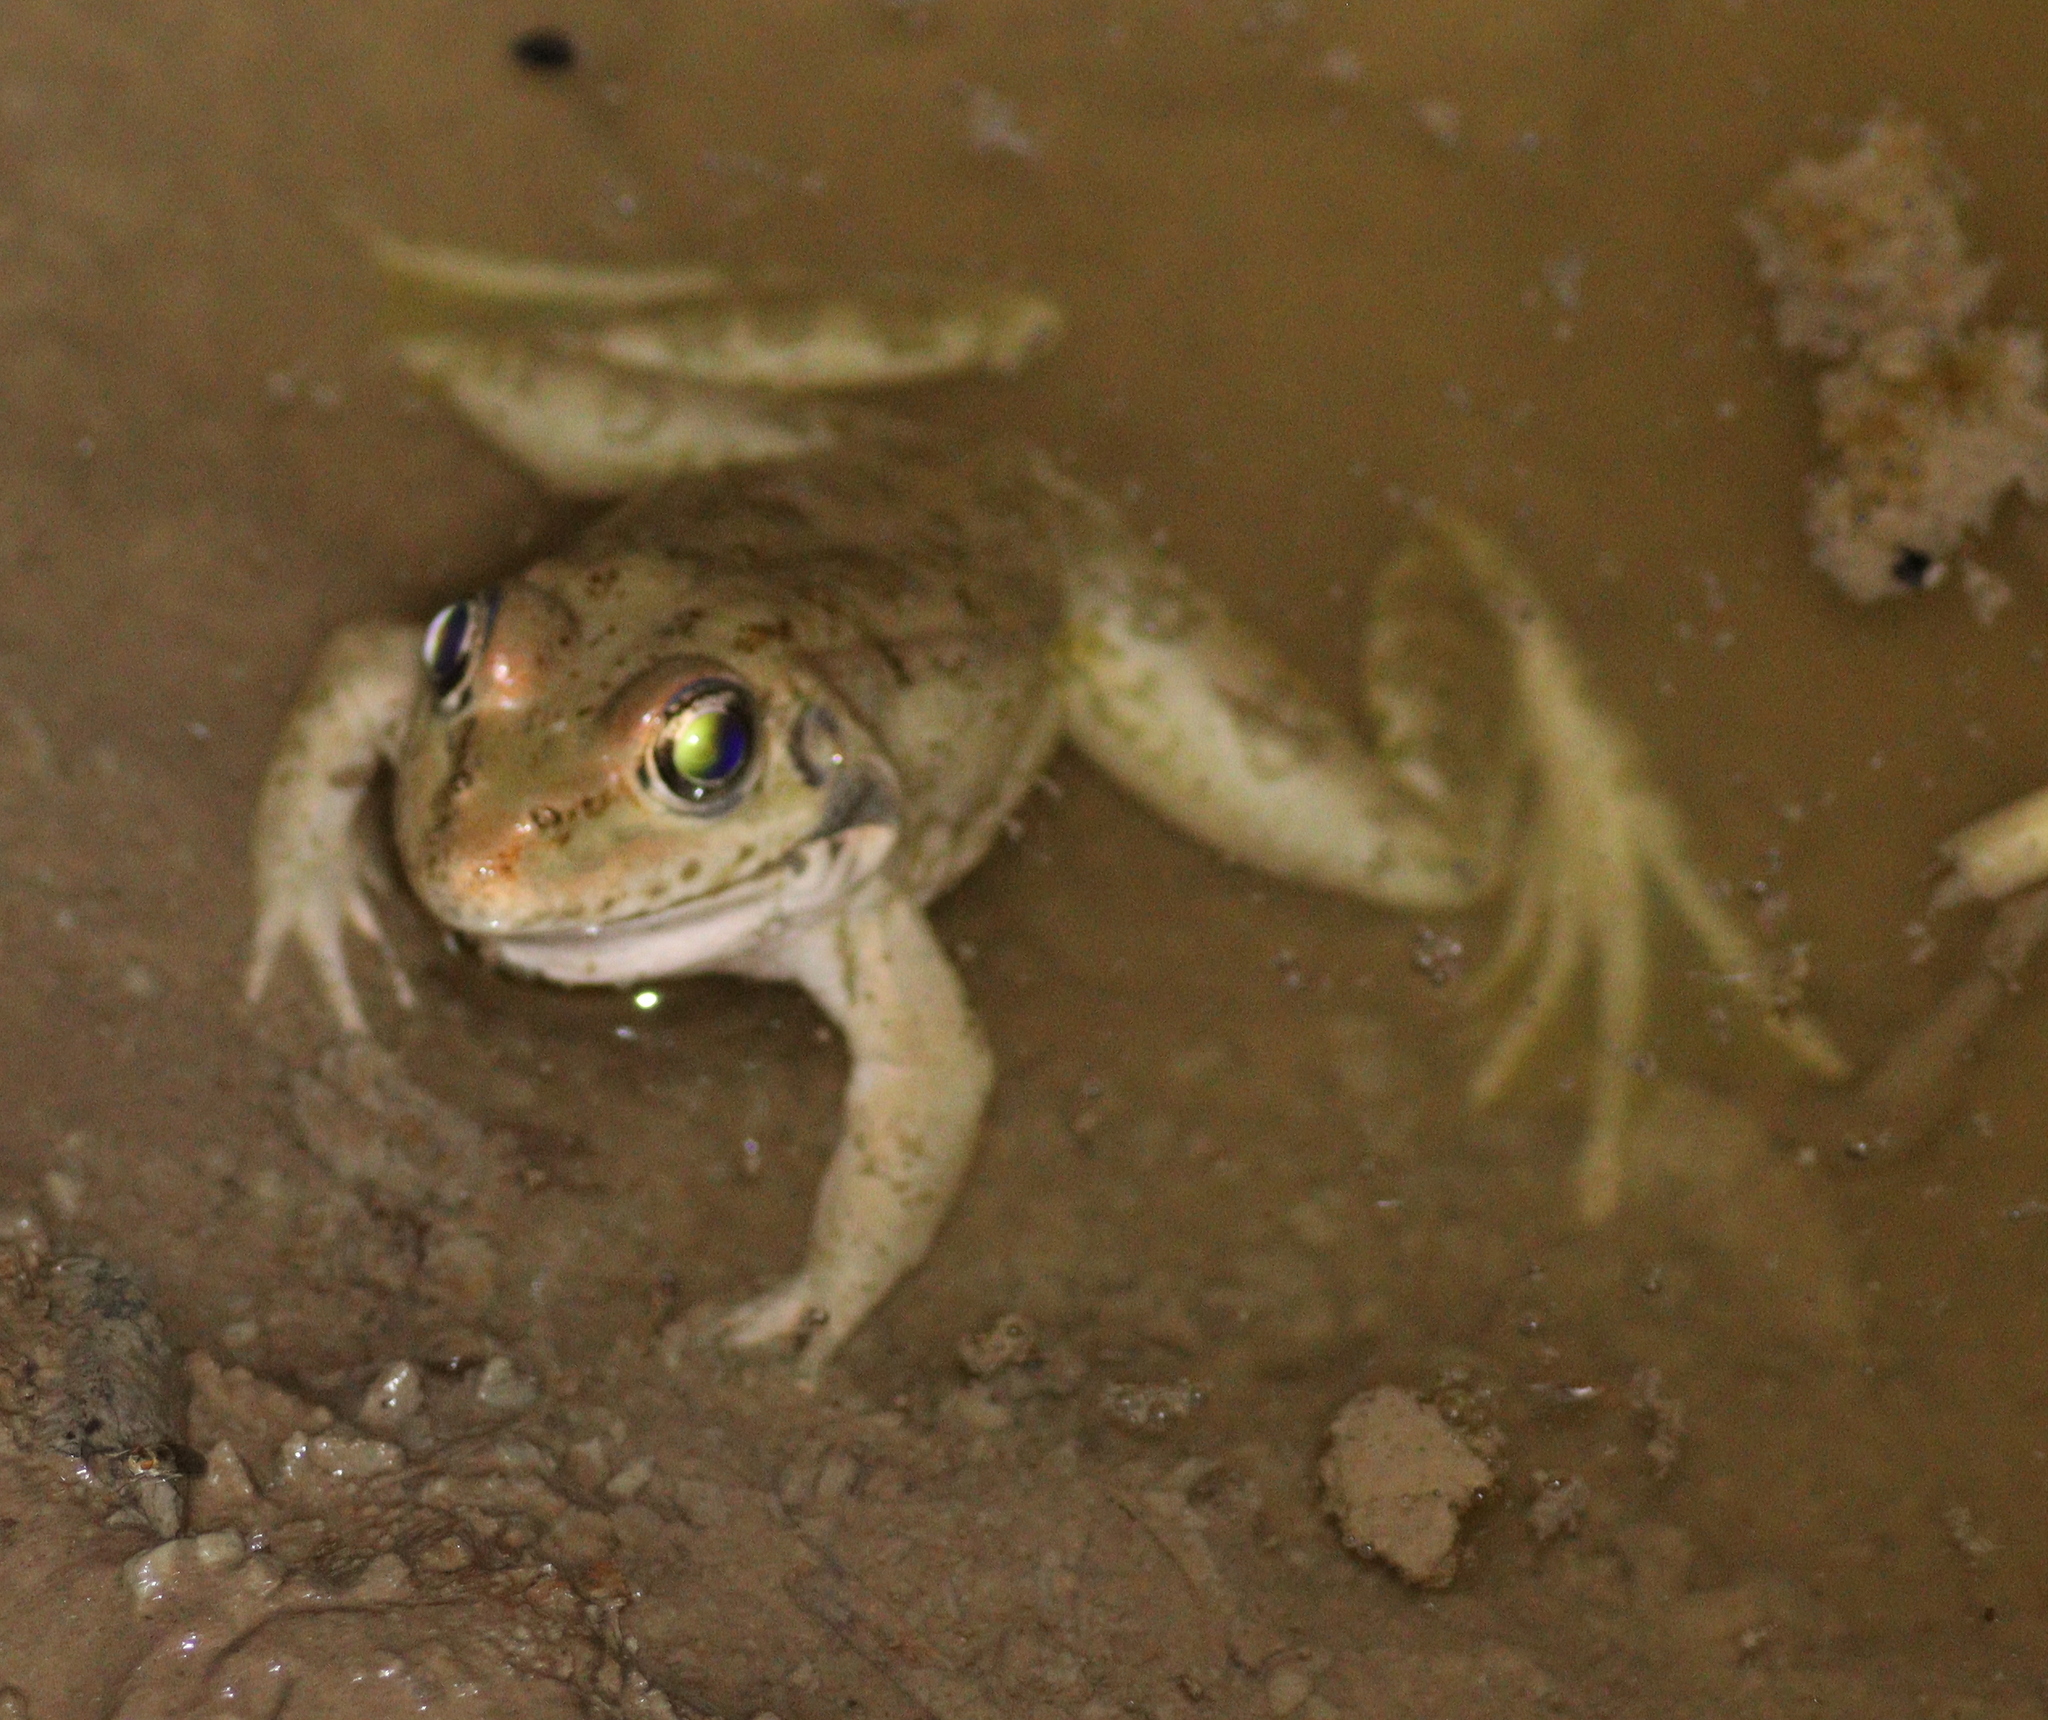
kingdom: Animalia
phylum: Chordata
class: Amphibia
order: Anura
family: Ranidae
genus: Pelophylax
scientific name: Pelophylax ridibundus
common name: Marsh frog
